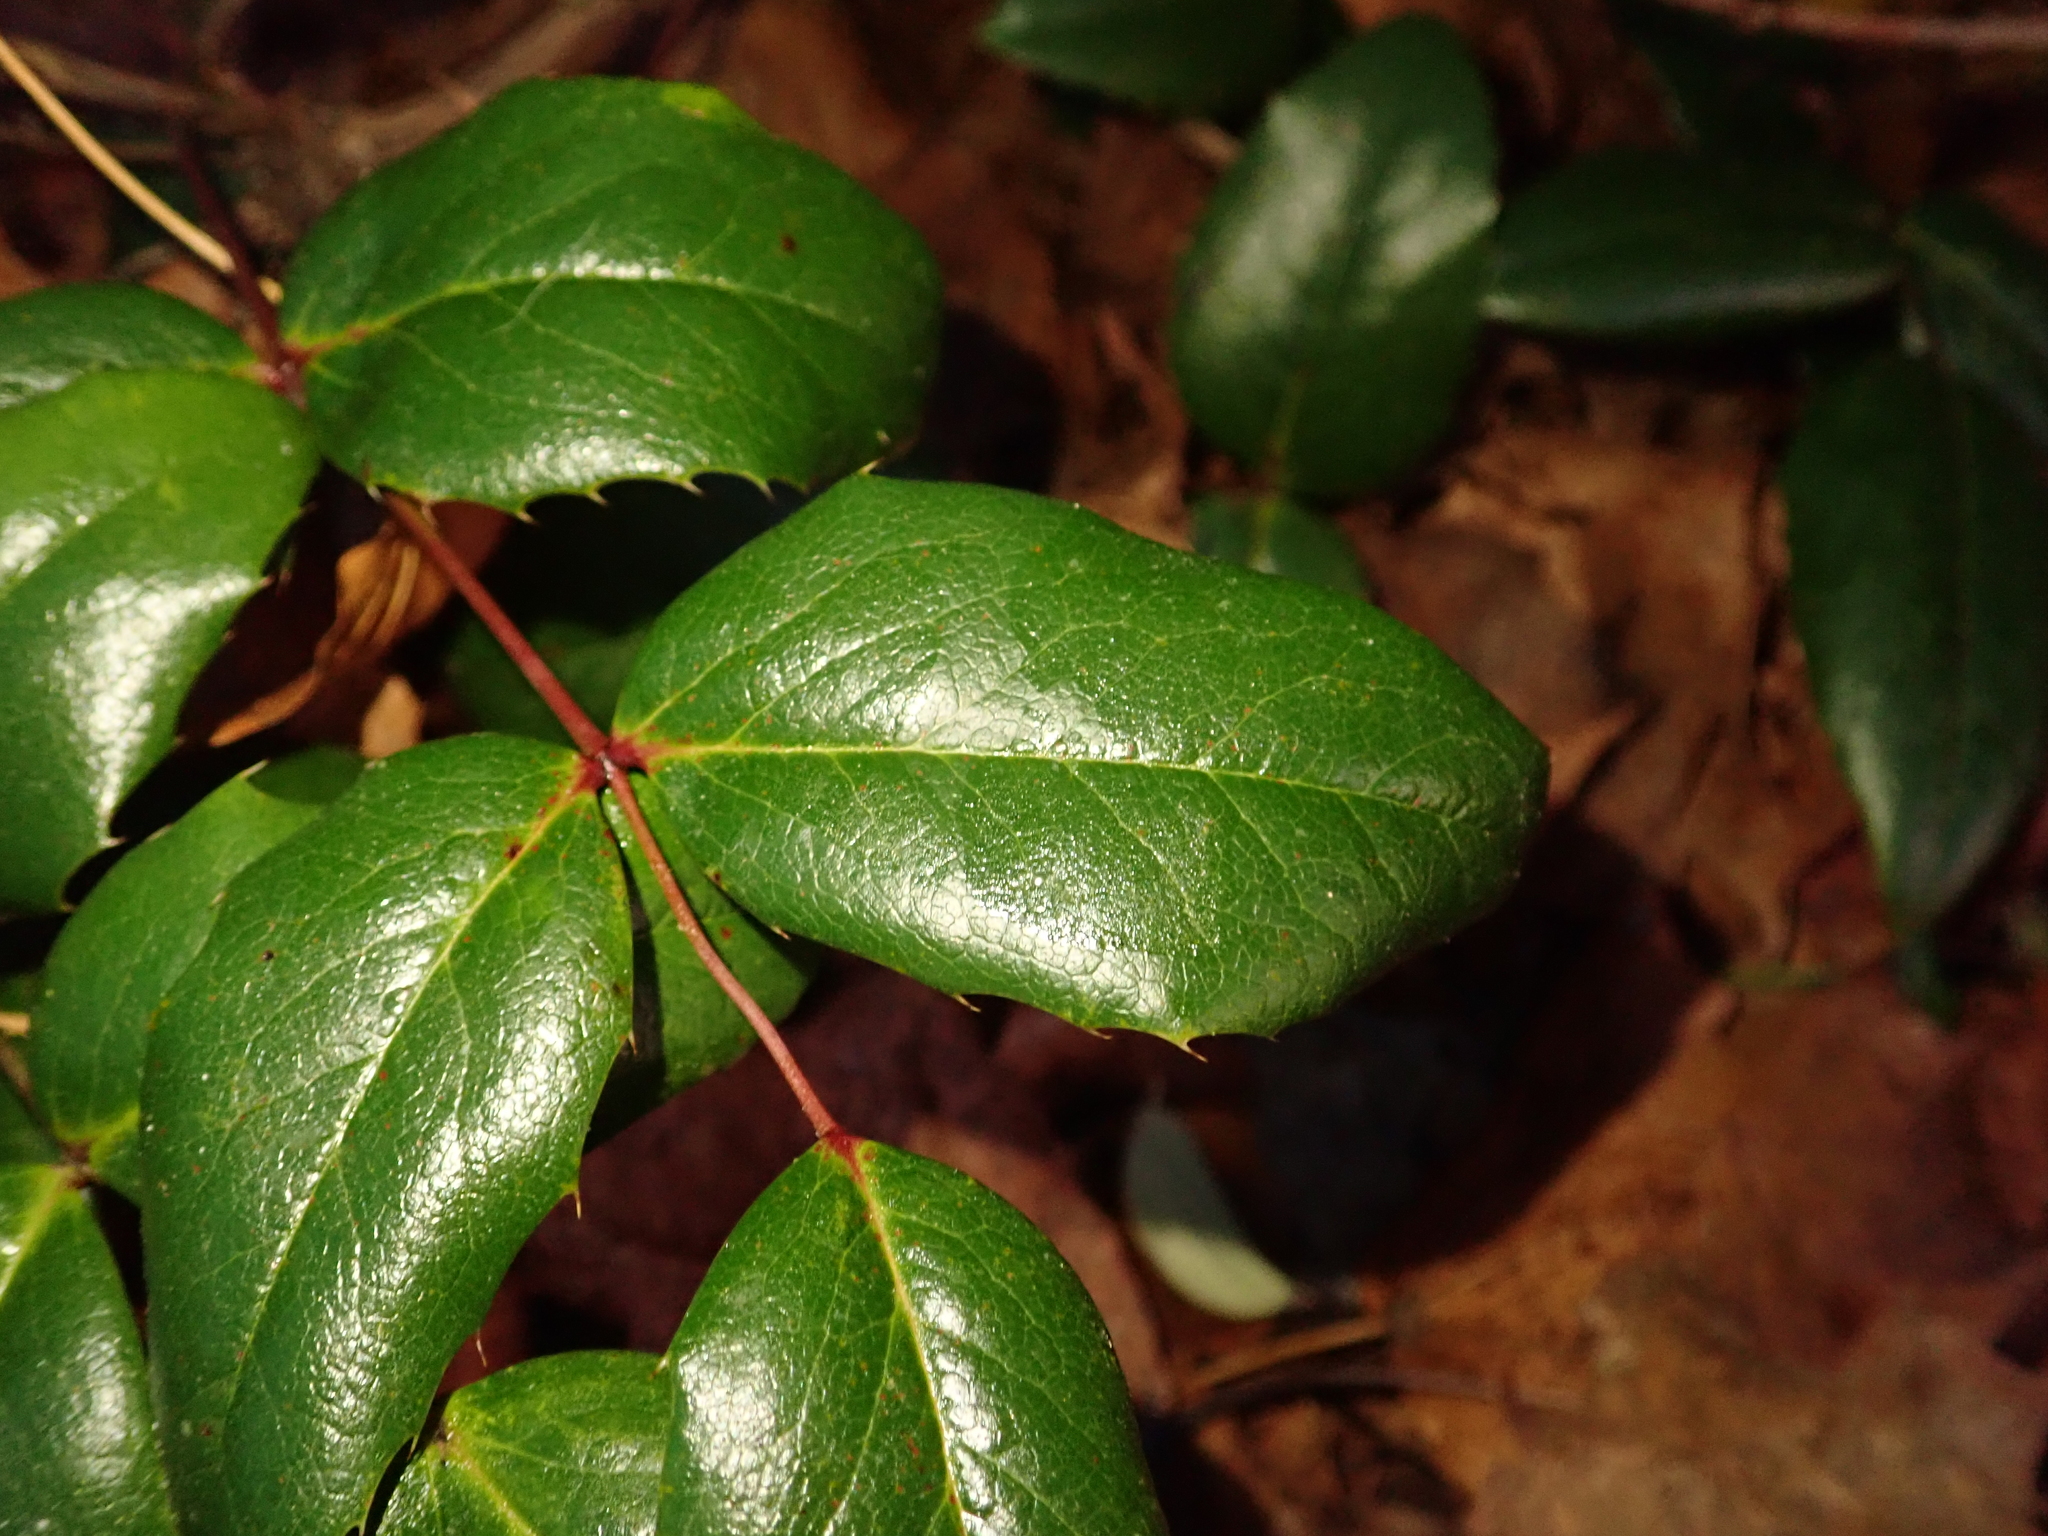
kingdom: Plantae
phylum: Tracheophyta
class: Magnoliopsida
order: Ranunculales
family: Berberidaceae
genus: Mahonia
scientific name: Mahonia aquifolium
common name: Oregon-grape
